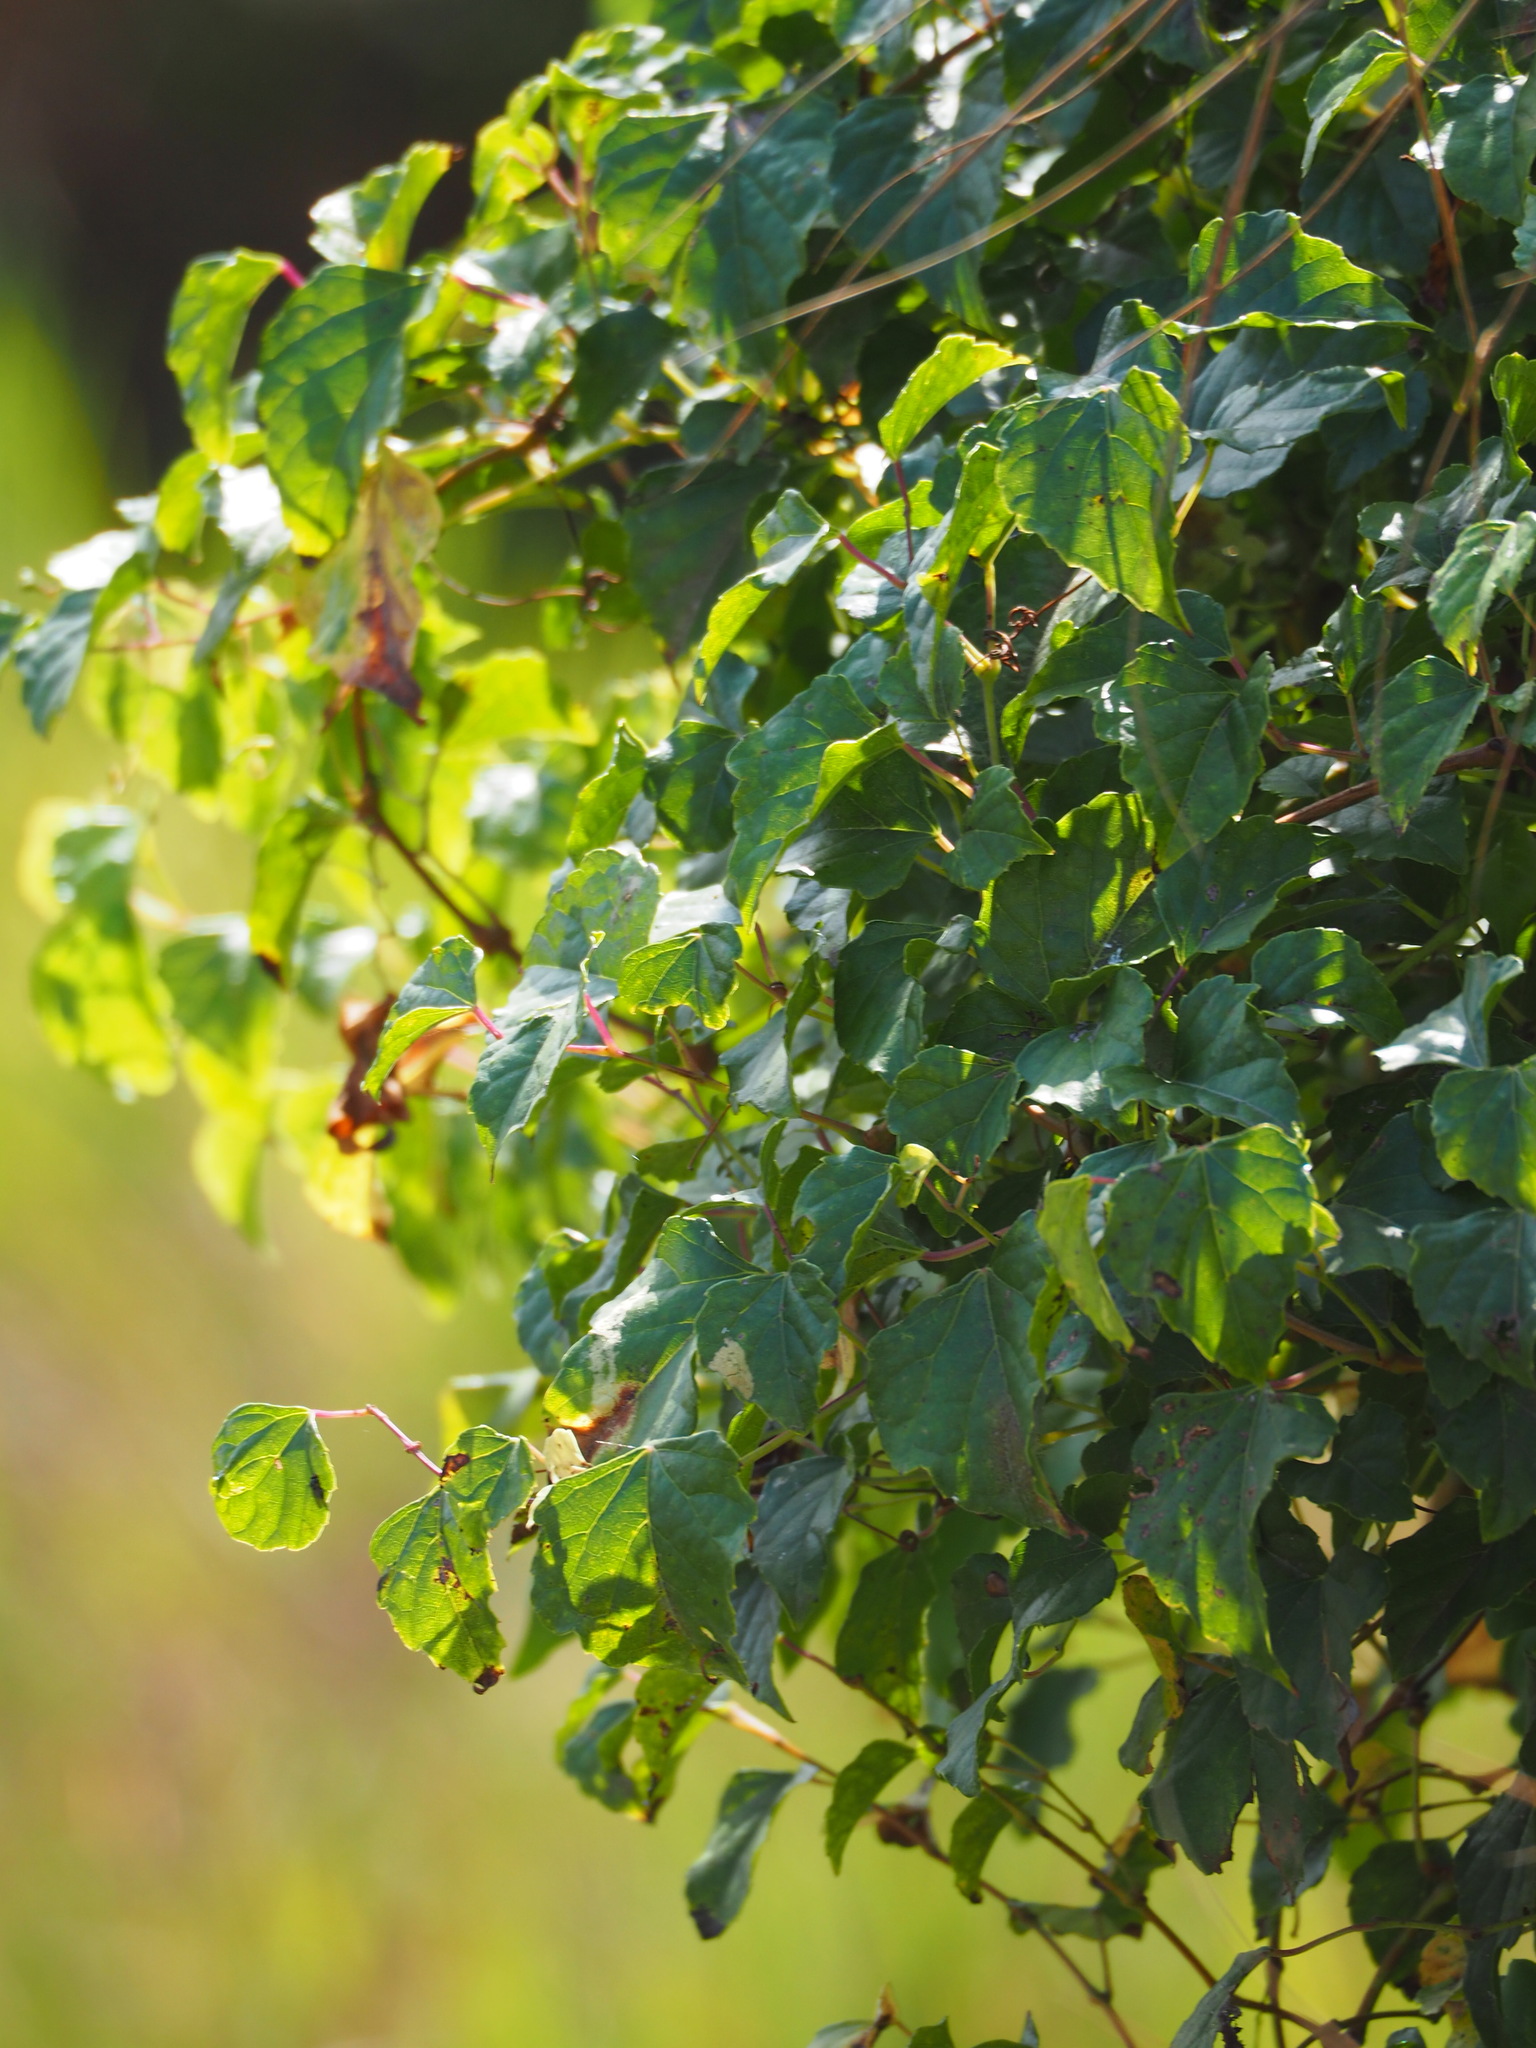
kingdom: Plantae
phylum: Tracheophyta
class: Magnoliopsida
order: Vitales
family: Vitaceae
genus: Ampelopsis
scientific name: Ampelopsis glandulosa
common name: Amur peppervine
